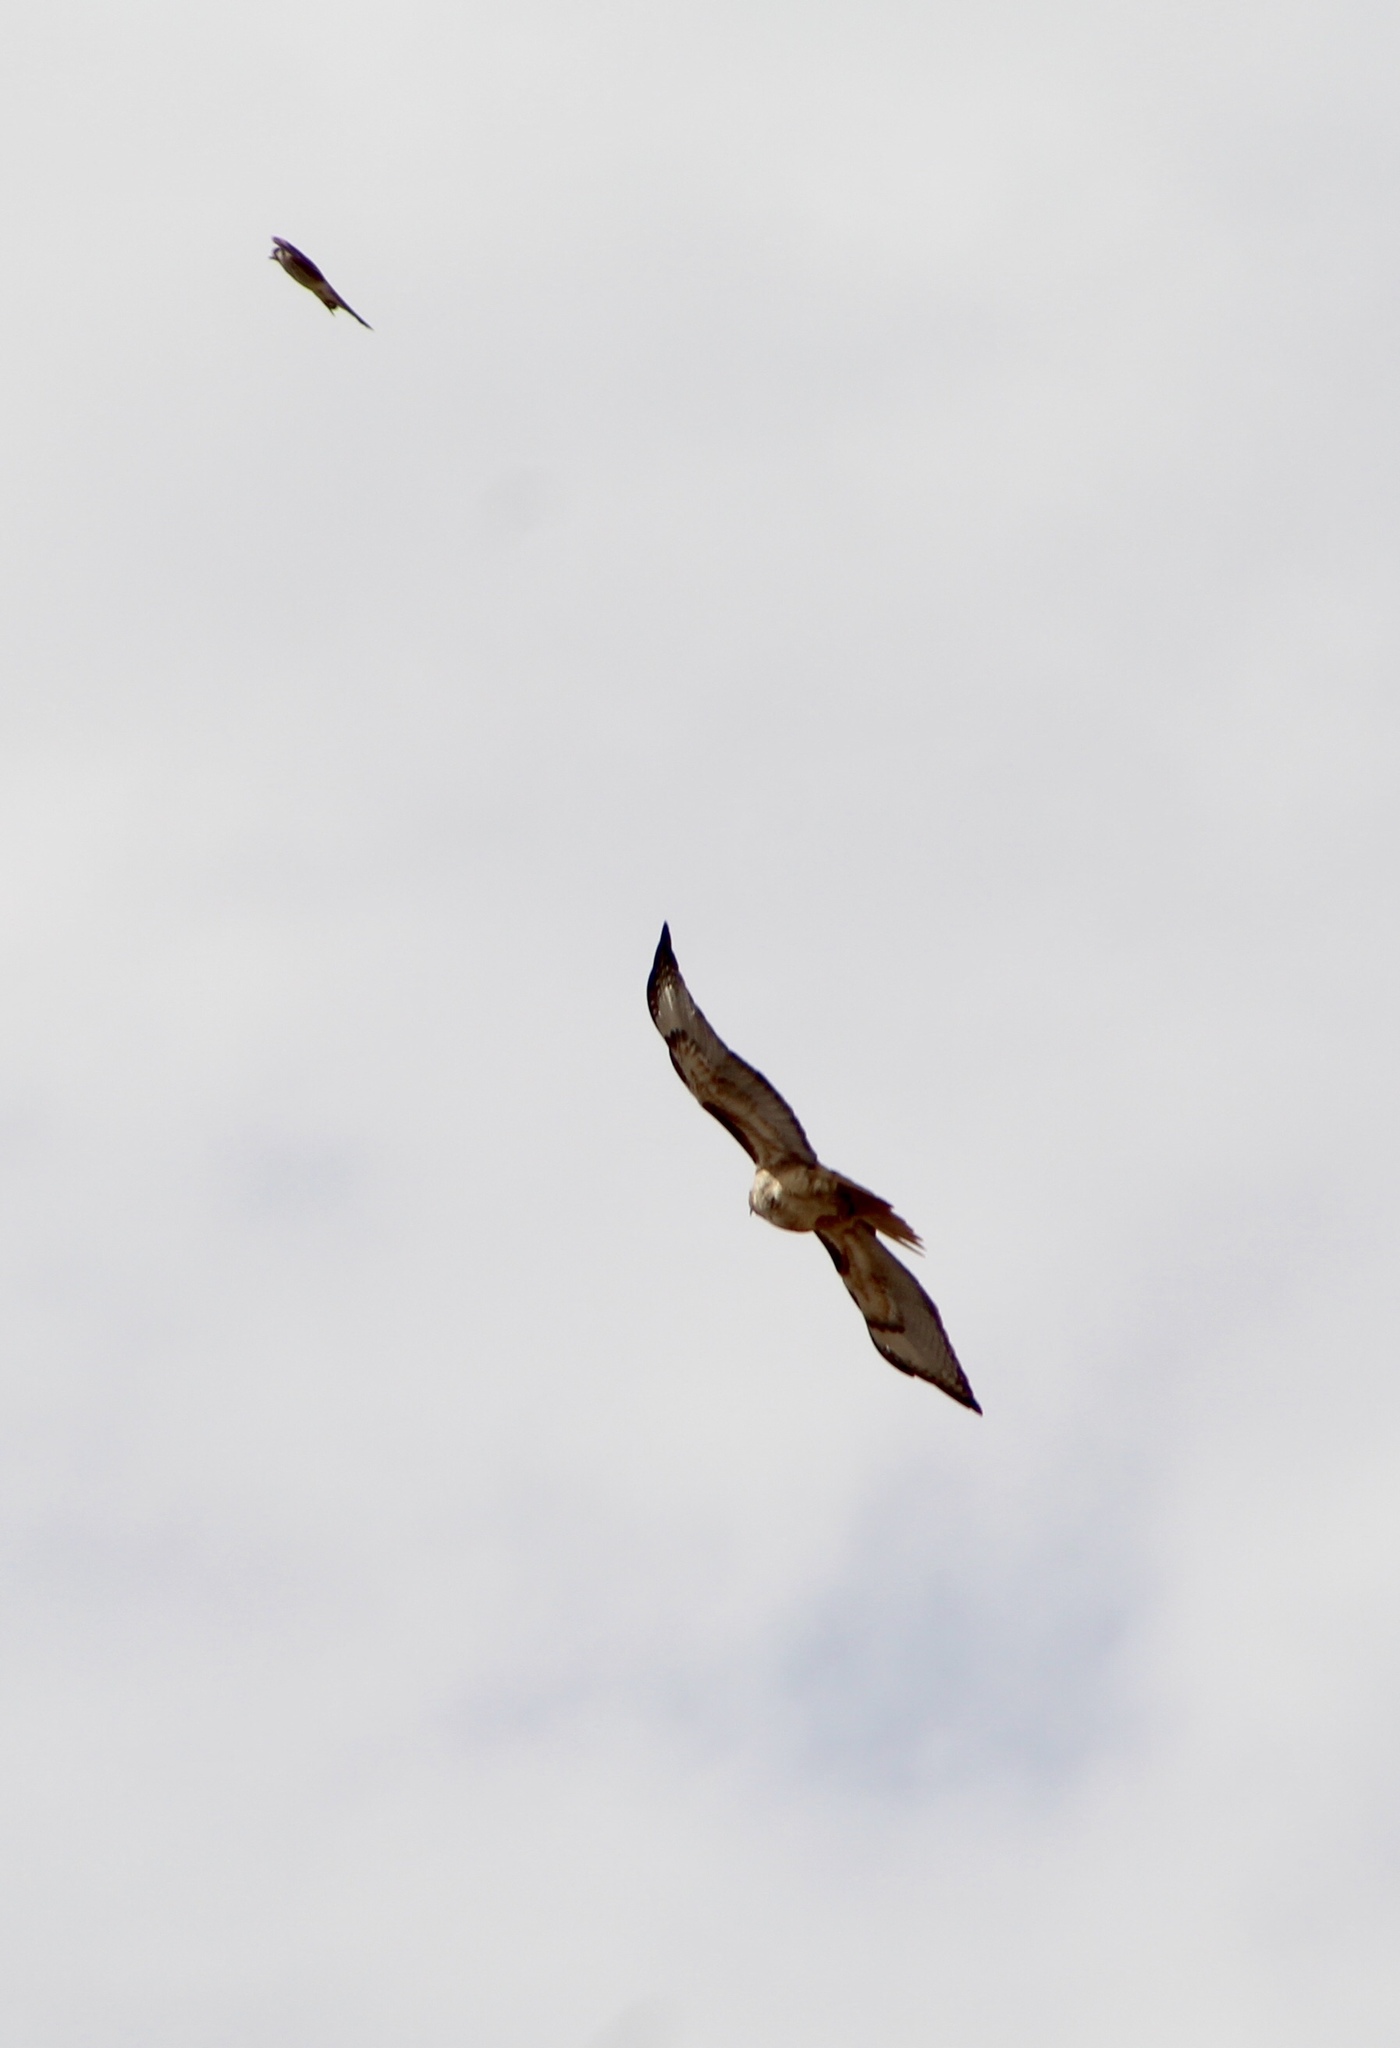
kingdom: Animalia
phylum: Chordata
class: Aves
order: Accipitriformes
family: Accipitridae
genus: Buteo
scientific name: Buteo jamaicensis
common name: Red-tailed hawk
